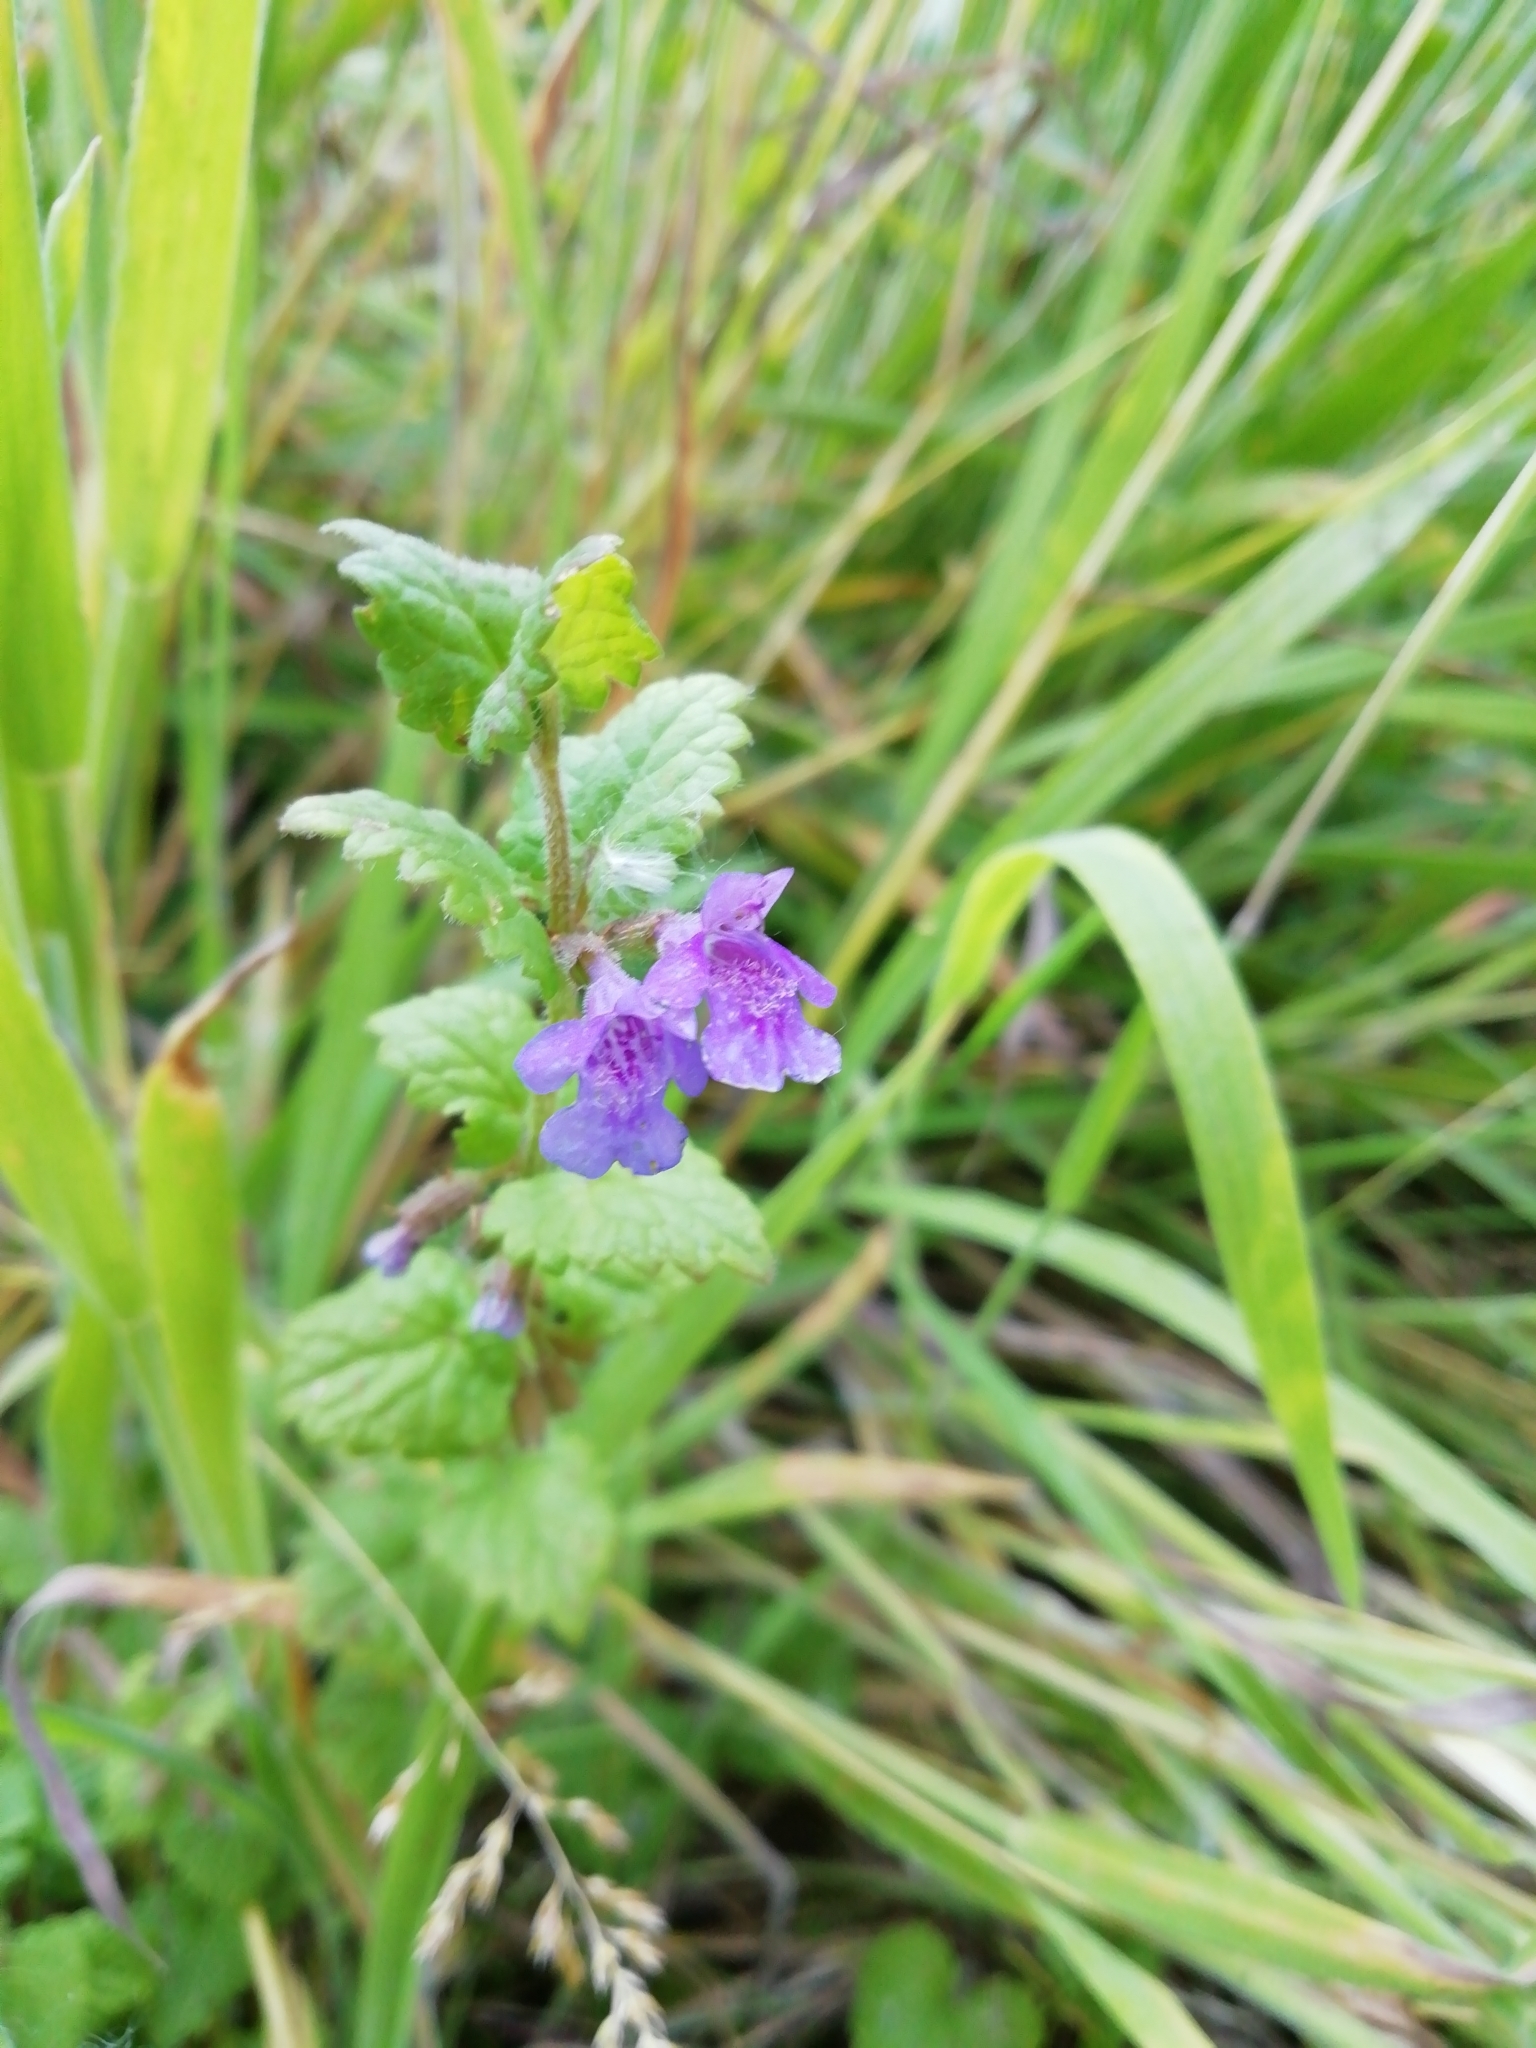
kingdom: Plantae
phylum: Tracheophyta
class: Magnoliopsida
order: Lamiales
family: Lamiaceae
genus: Glechoma
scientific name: Glechoma hederacea
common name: Ground ivy
